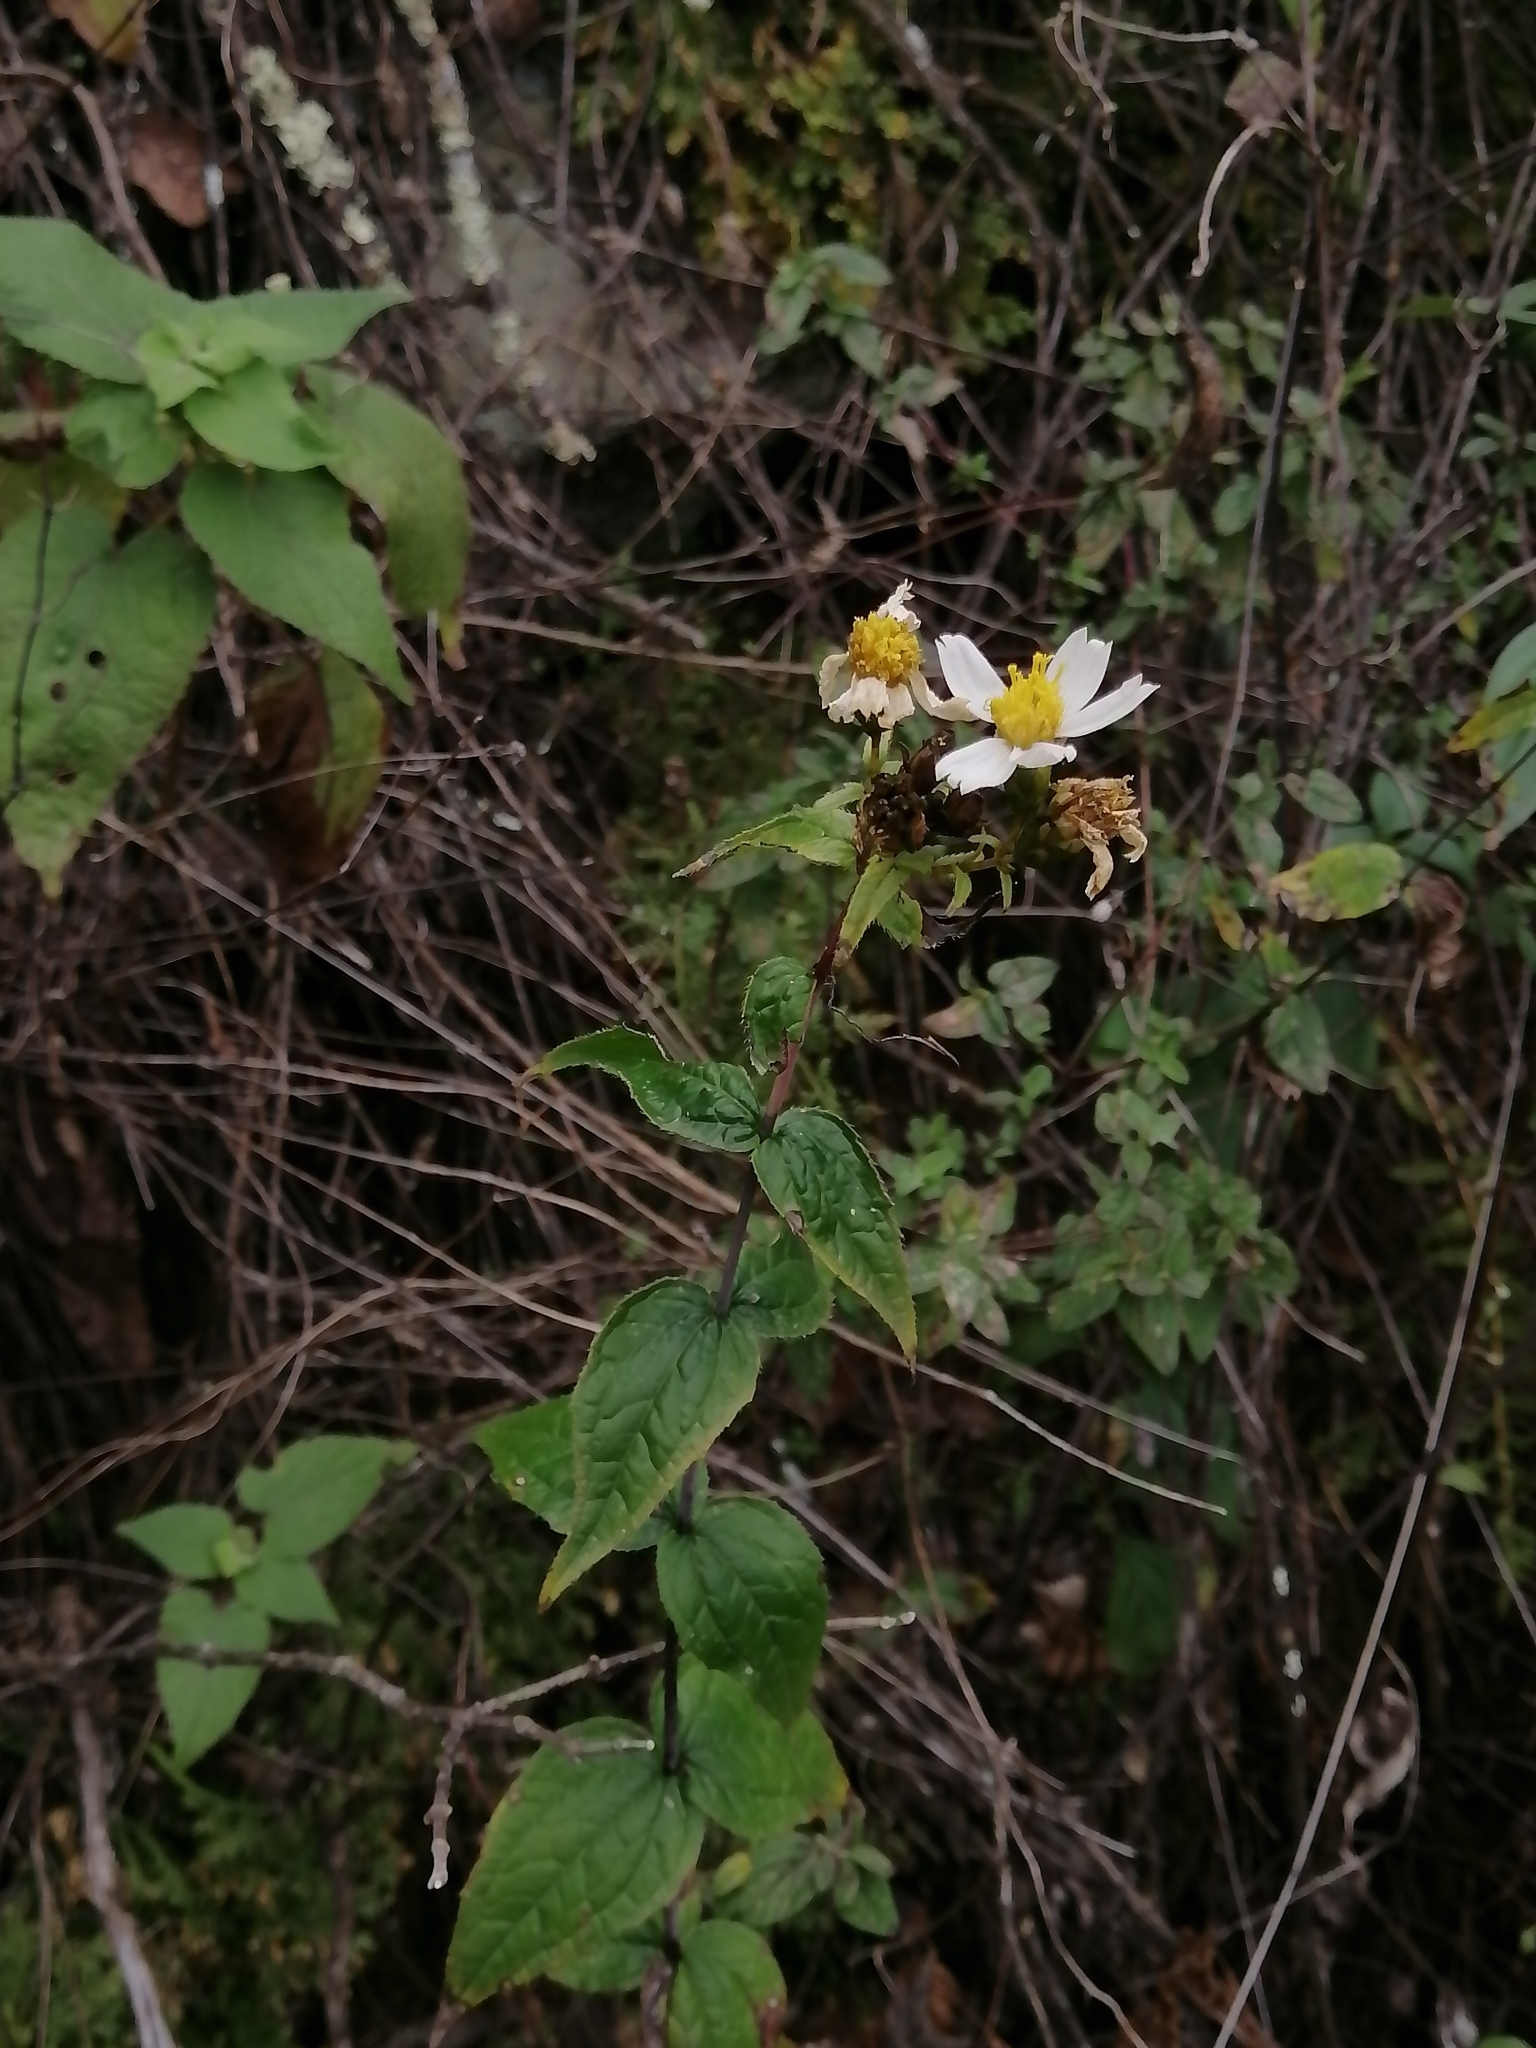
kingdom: Plantae
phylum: Tracheophyta
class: Magnoliopsida
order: Asterales
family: Asteraceae
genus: Oteiza
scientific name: Oteiza acuminata
